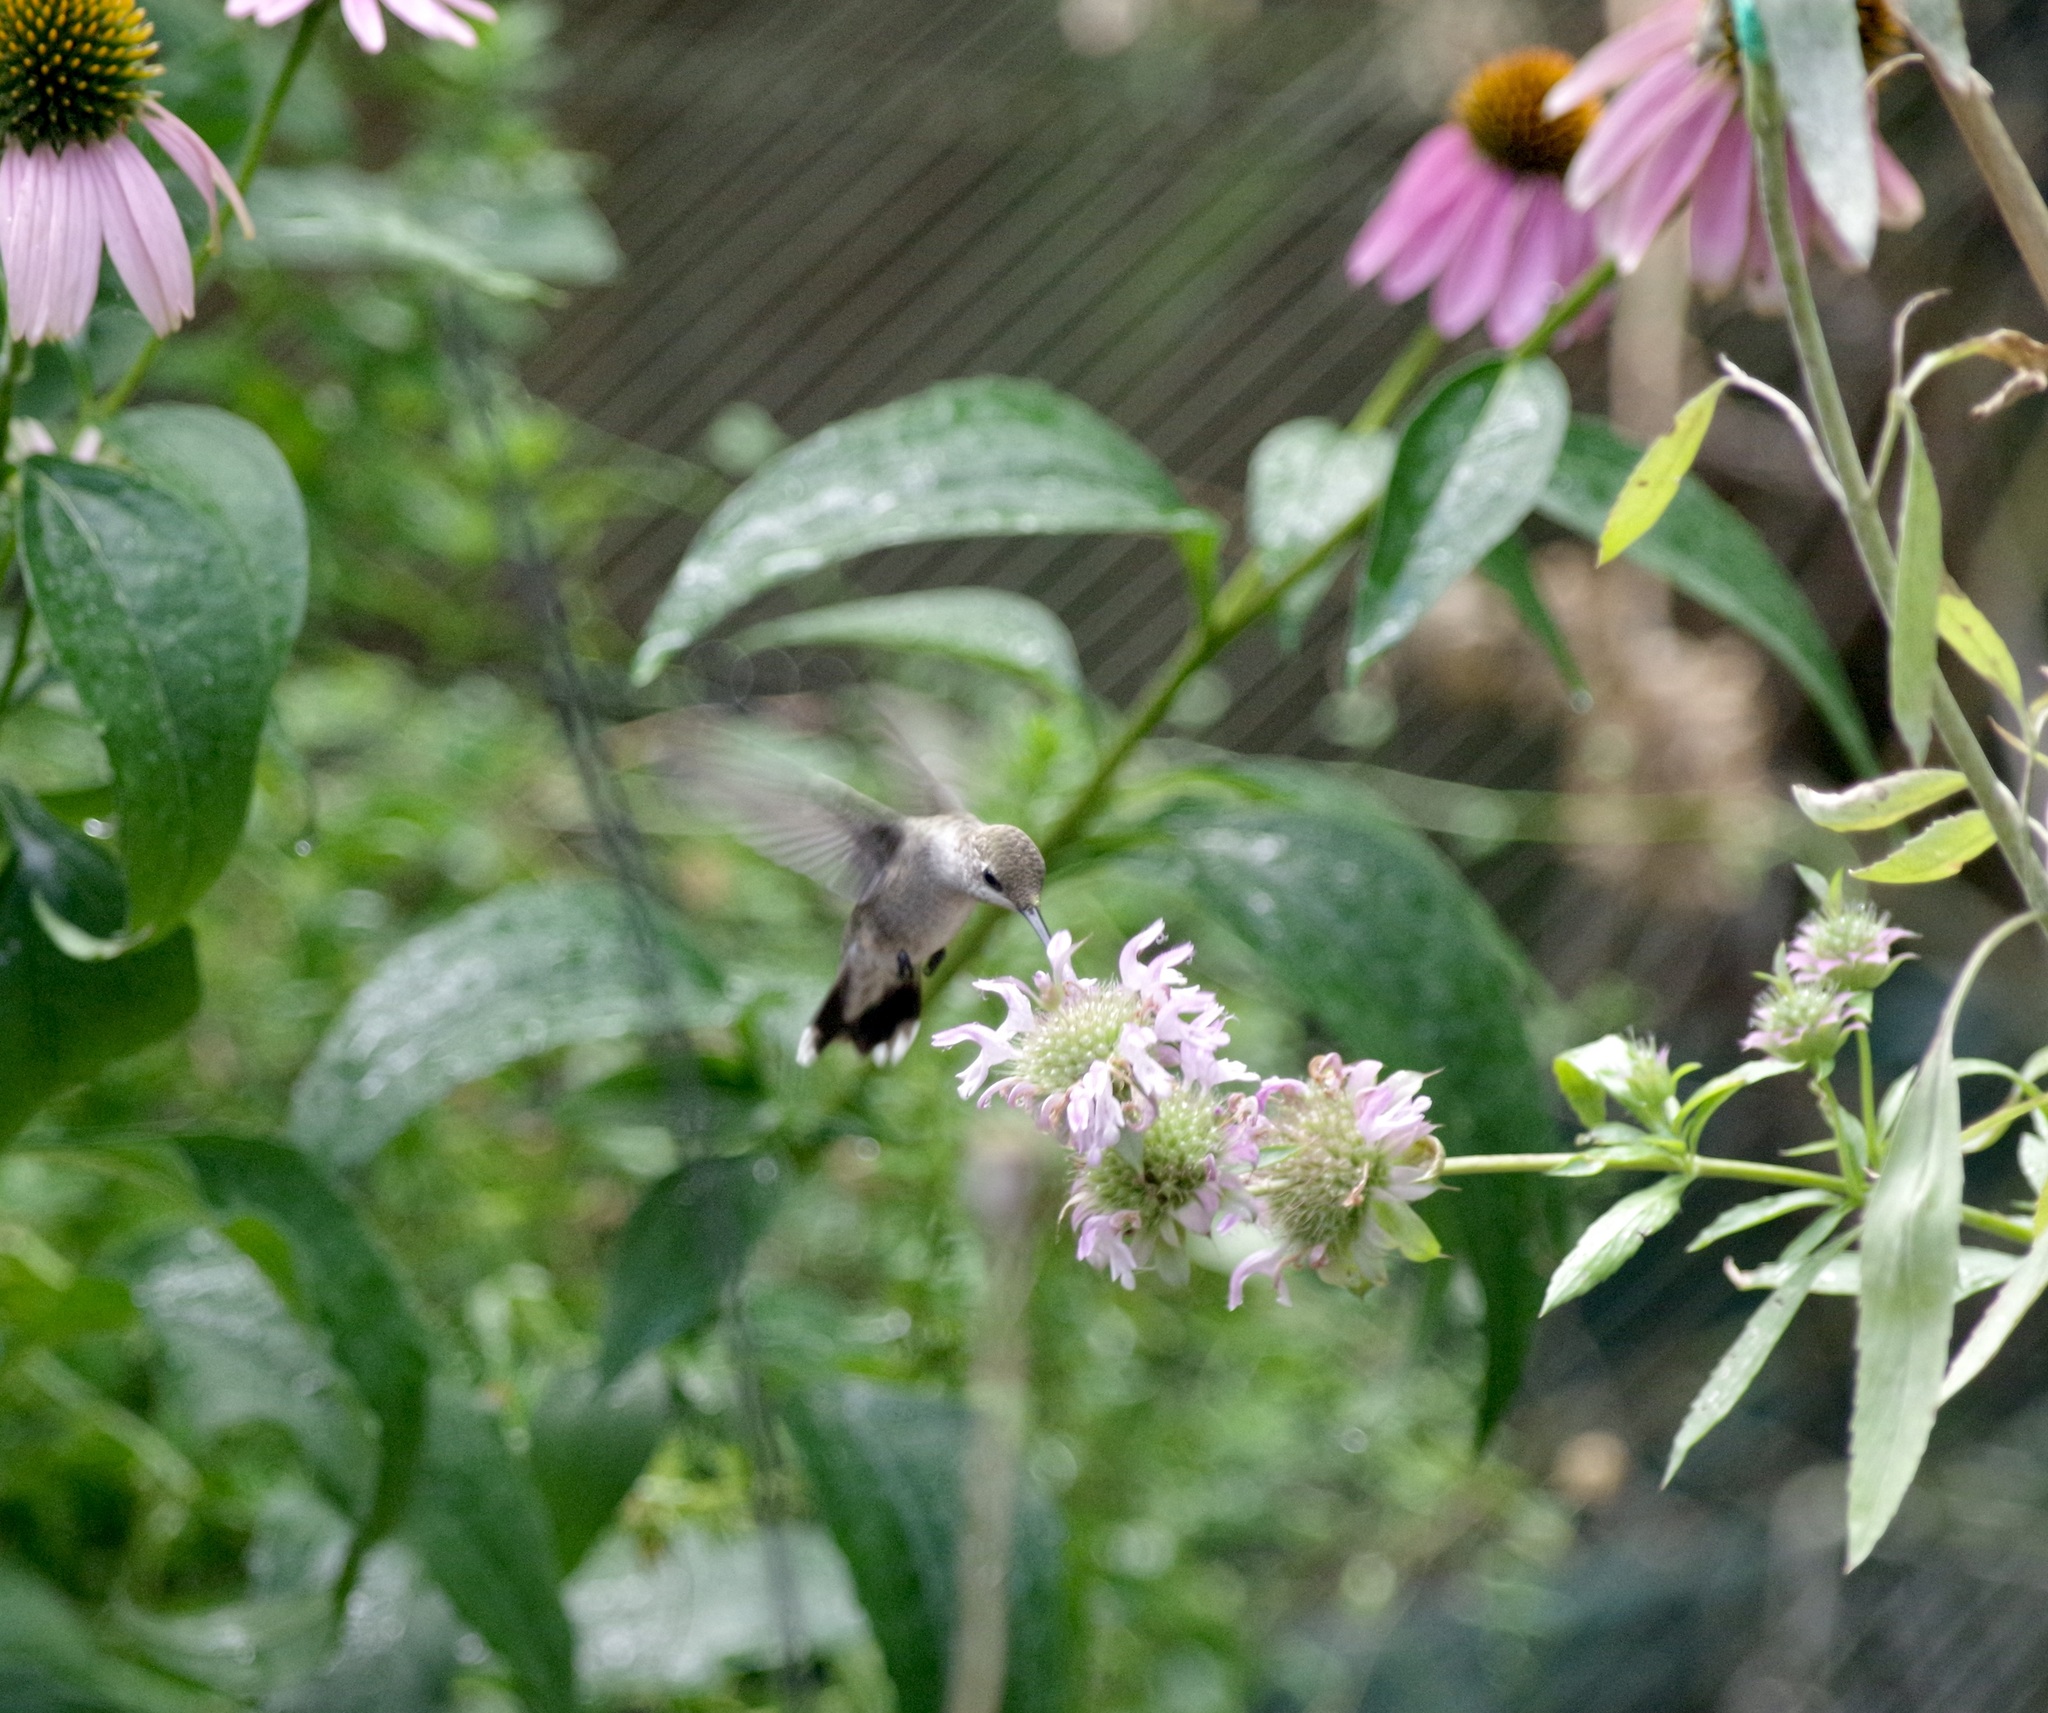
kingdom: Animalia
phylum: Chordata
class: Aves
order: Apodiformes
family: Trochilidae
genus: Archilochus
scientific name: Archilochus alexandri
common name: Black-chinned hummingbird
